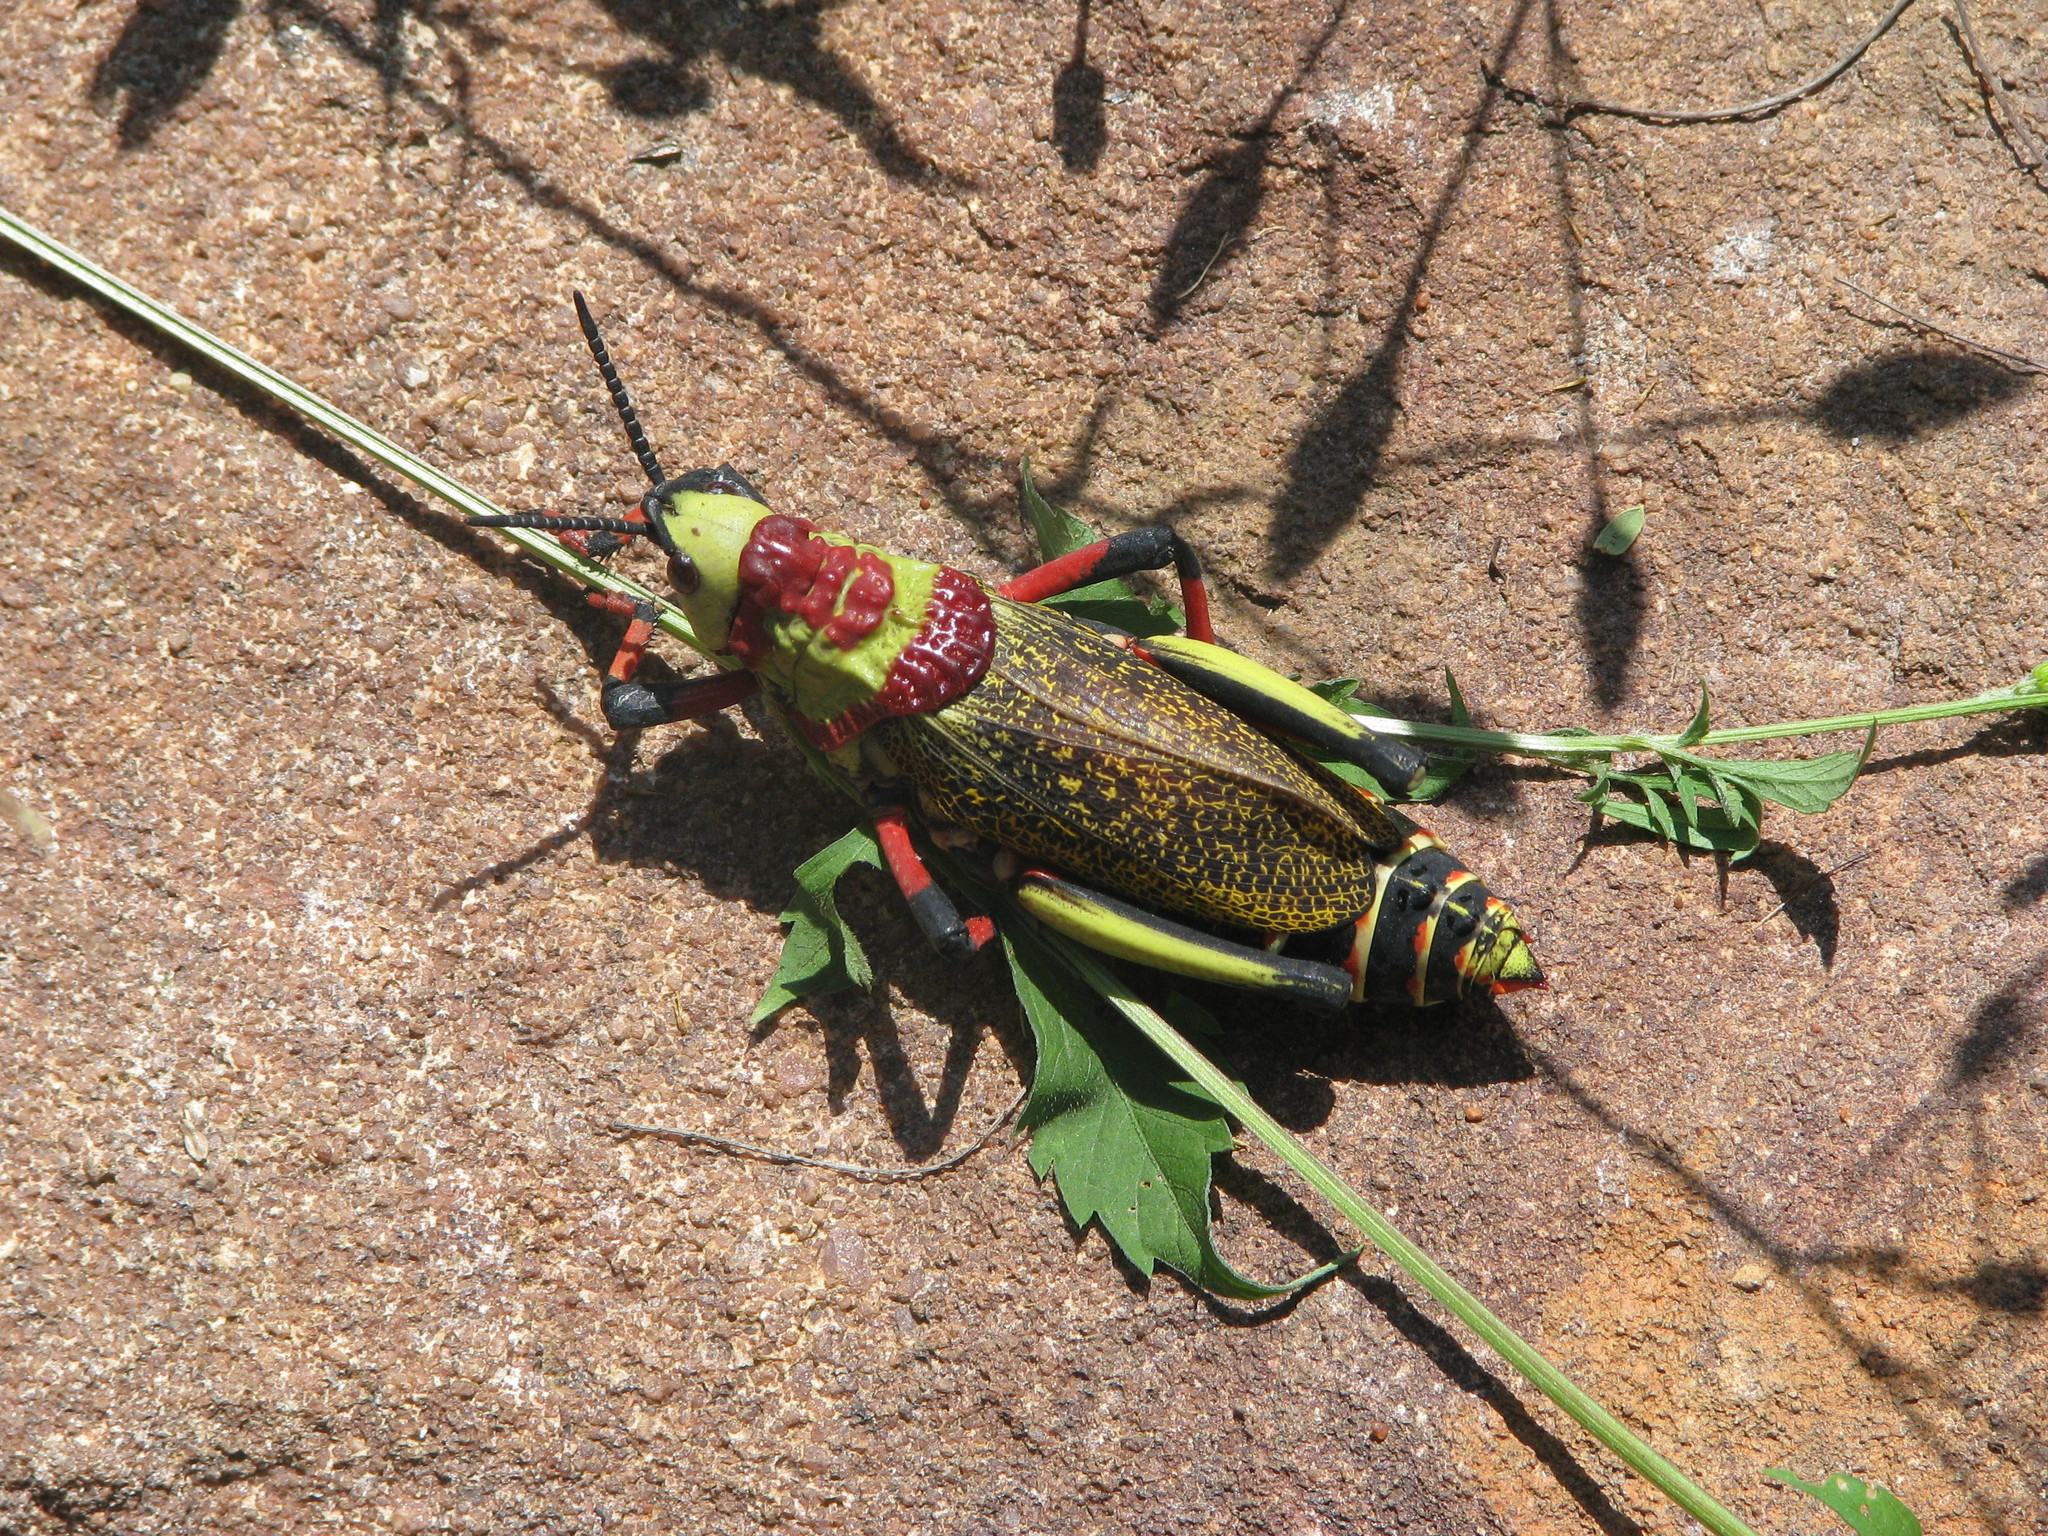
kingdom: Animalia
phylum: Arthropoda
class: Insecta
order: Orthoptera
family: Pyrgomorphidae
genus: Dictyophorus
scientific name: Dictyophorus spumans
